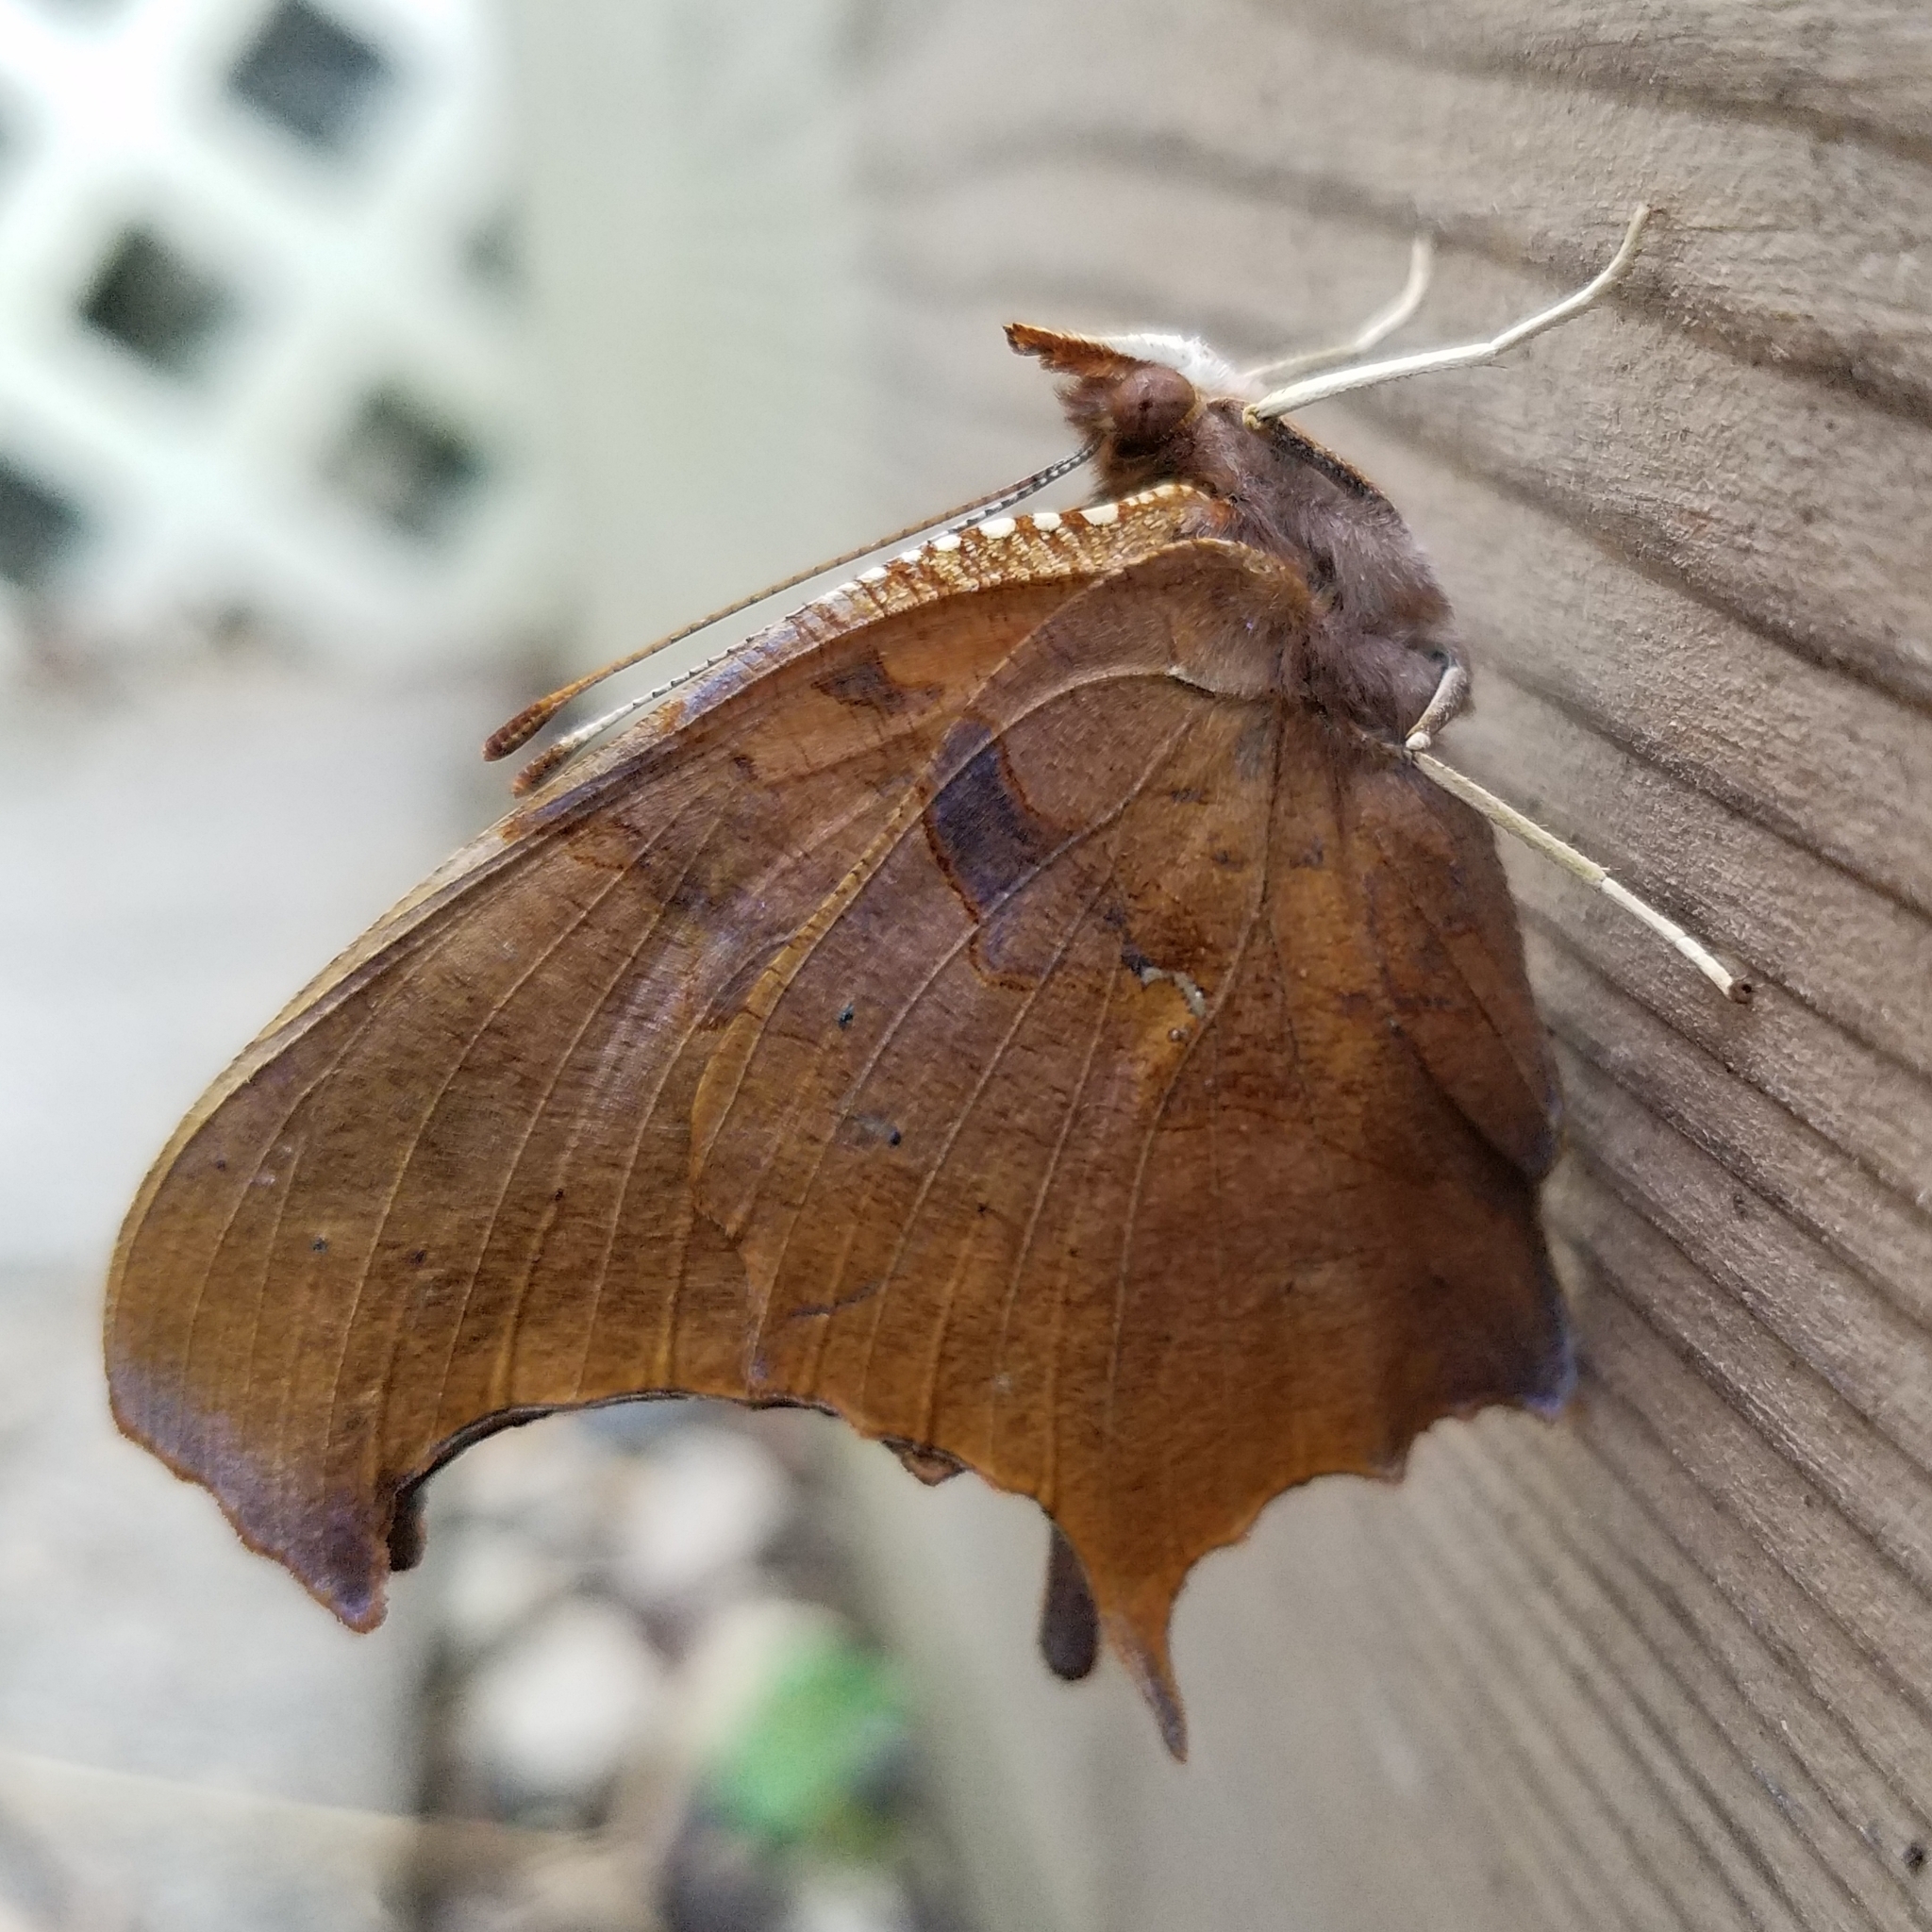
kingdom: Animalia
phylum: Arthropoda
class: Insecta
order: Lepidoptera
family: Nymphalidae
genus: Polygonia
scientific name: Polygonia interrogationis
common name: Question mark
